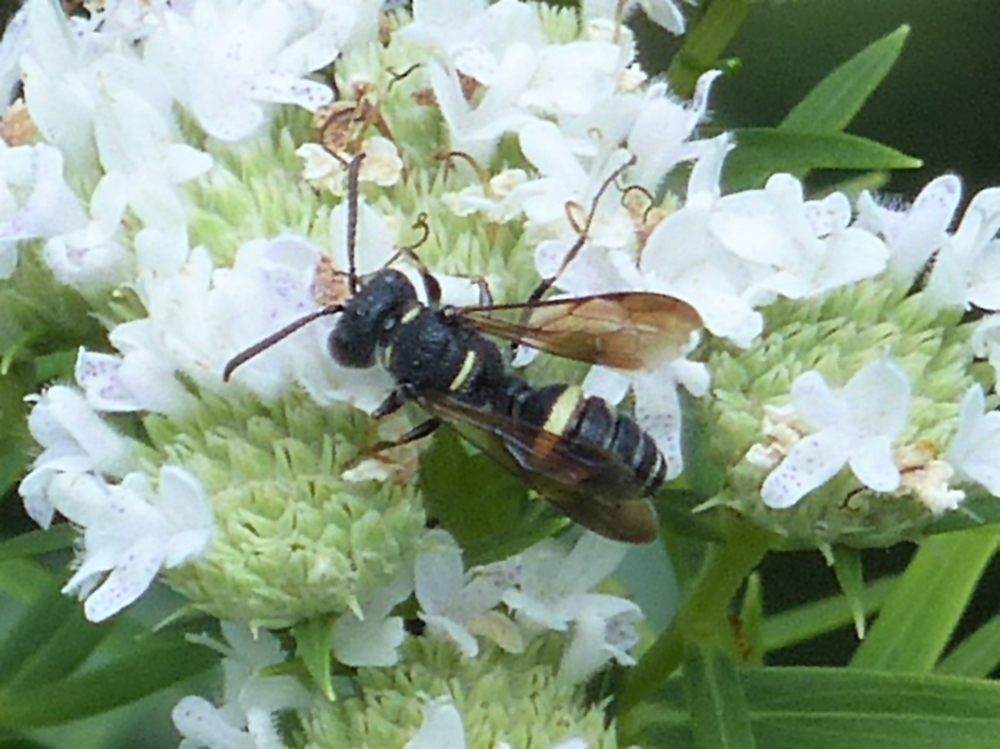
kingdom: Animalia
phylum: Arthropoda
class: Insecta
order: Hymenoptera
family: Crabronidae
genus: Cerceris
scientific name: Cerceris fumipennis
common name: Smokey-winged beetle bandit wasp
